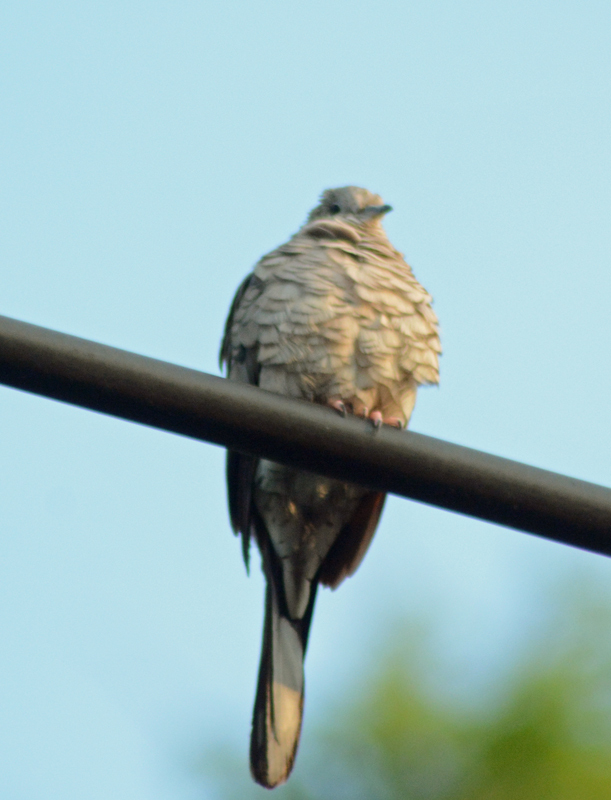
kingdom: Animalia
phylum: Chordata
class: Aves
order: Columbiformes
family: Columbidae
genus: Columbina
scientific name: Columbina inca
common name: Inca dove
